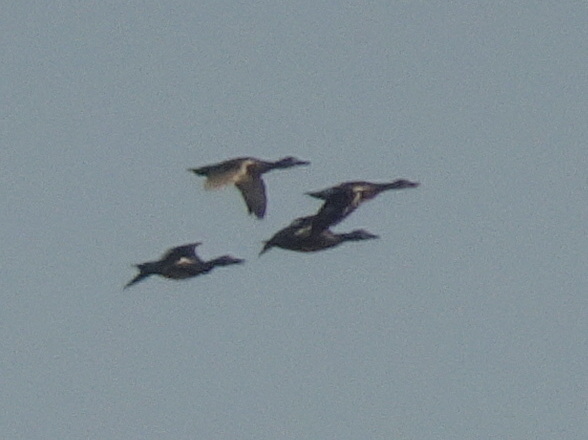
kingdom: Animalia
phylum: Chordata
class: Aves
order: Anseriformes
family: Anatidae
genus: Mareca
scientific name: Mareca strepera
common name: Gadwall
